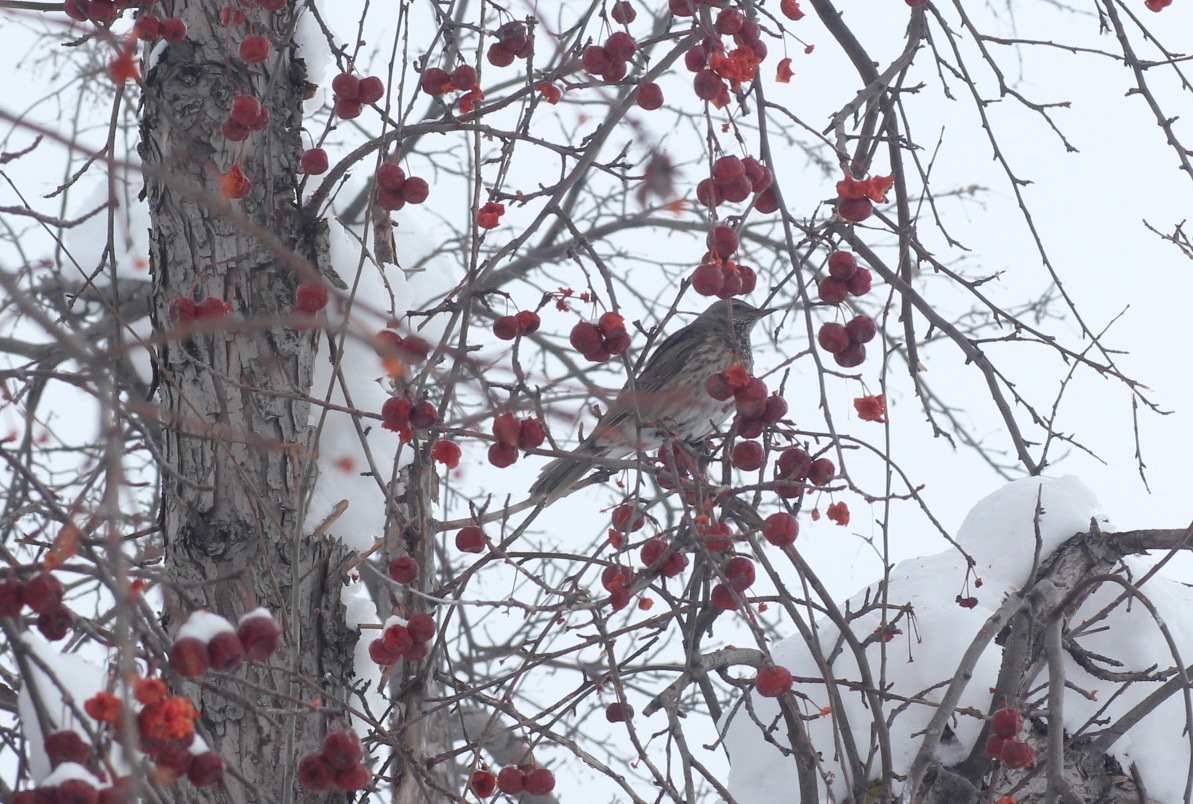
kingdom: Animalia
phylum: Chordata
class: Aves
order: Passeriformes
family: Turdidae
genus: Turdus
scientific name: Turdus atrogularis
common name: Black-throated thrush
